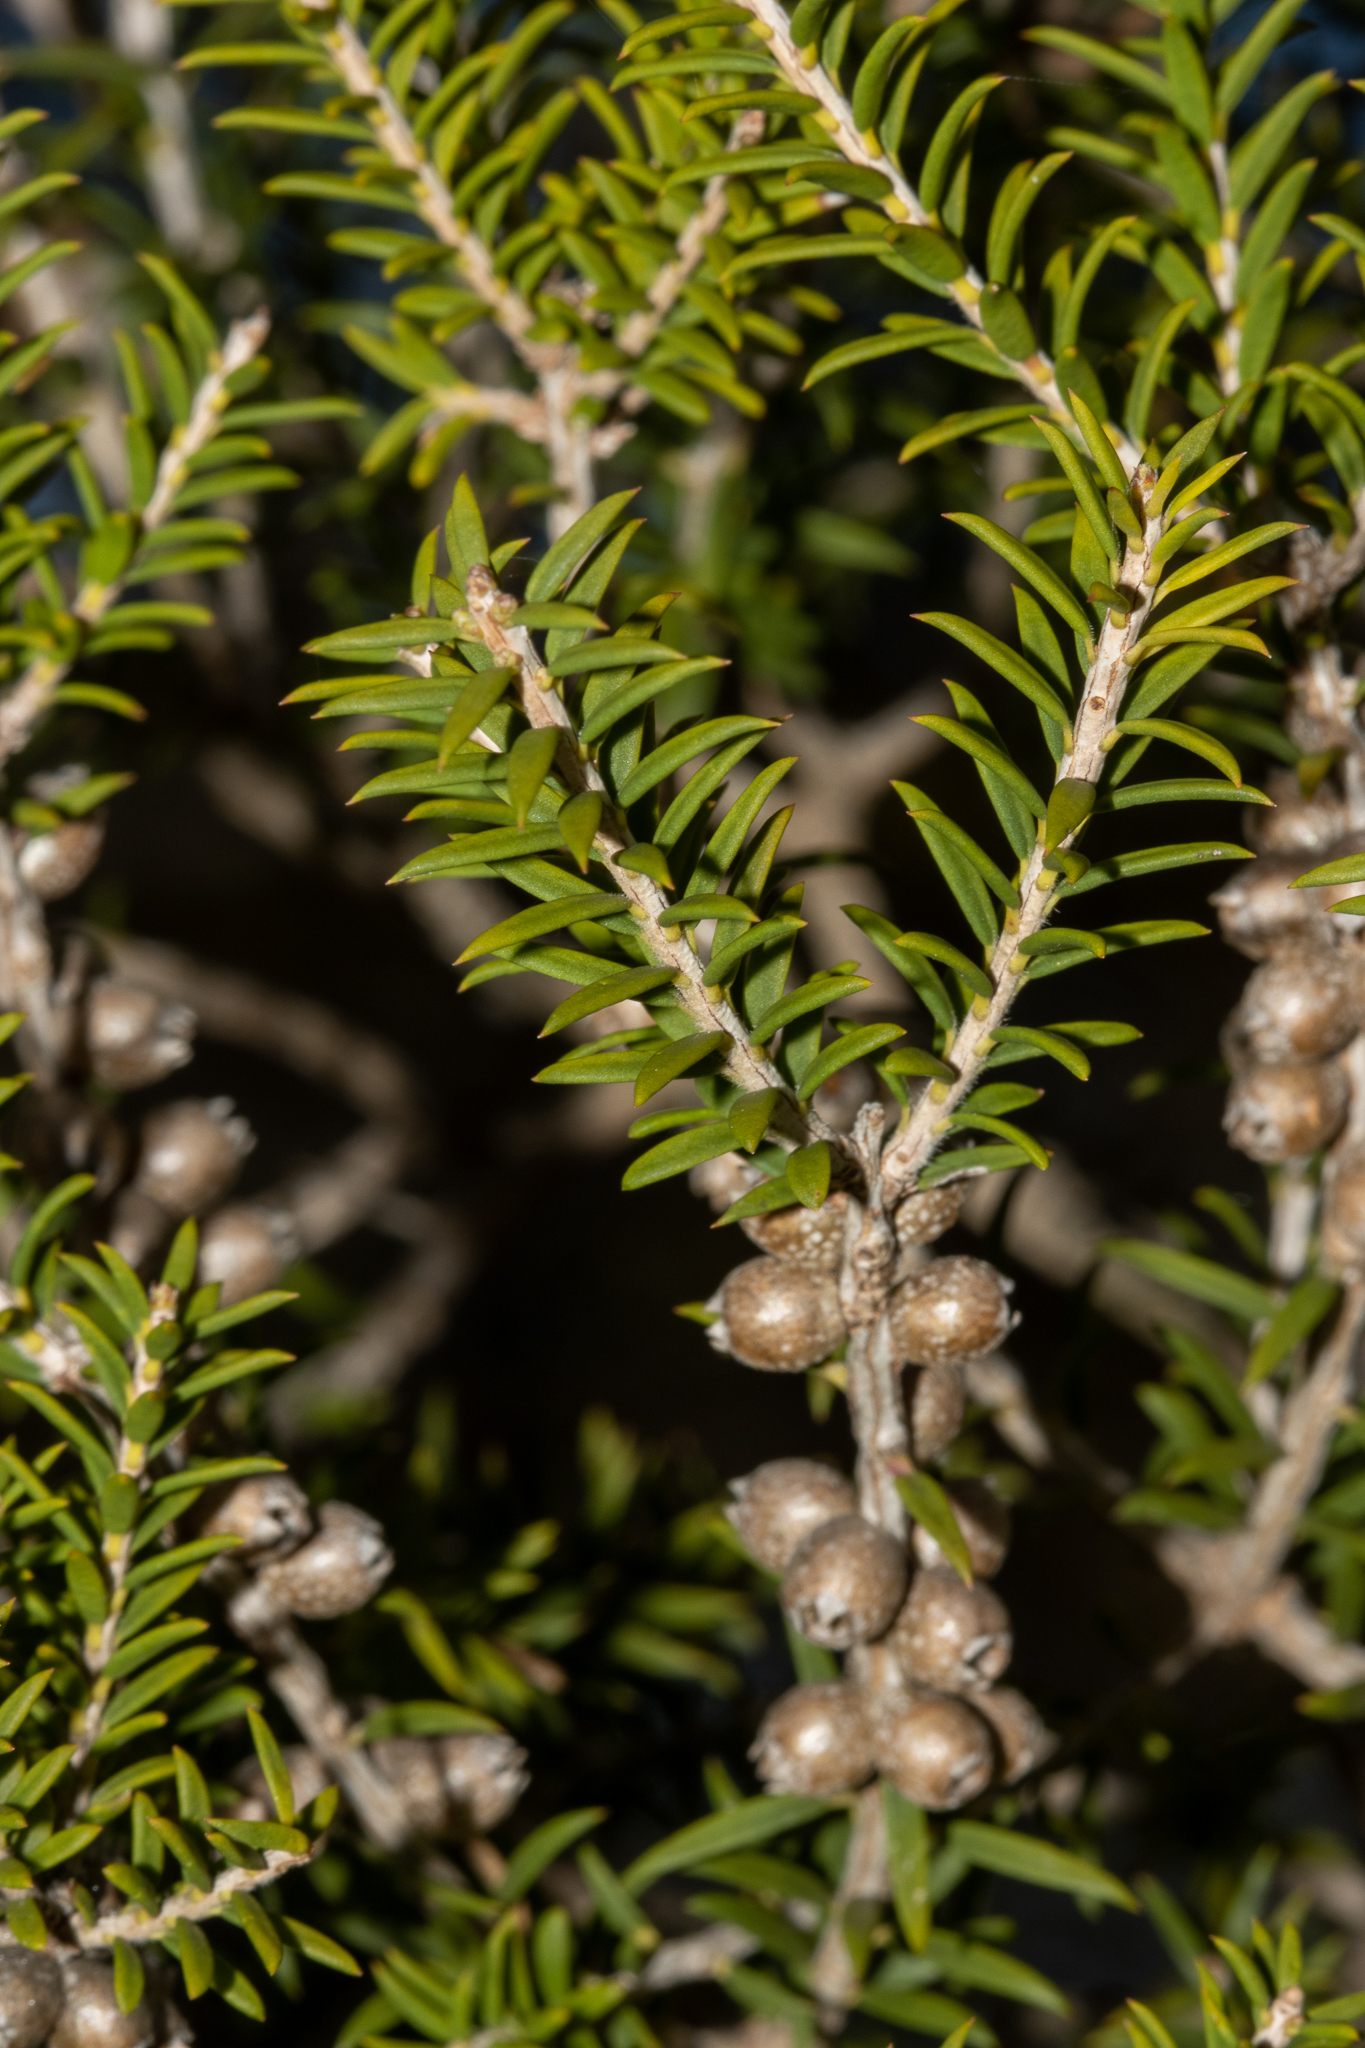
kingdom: Plantae
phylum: Tracheophyta
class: Magnoliopsida
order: Myrtales
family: Myrtaceae
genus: Melaleuca
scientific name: Melaleuca lanceolata
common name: Rottnest island teatree
